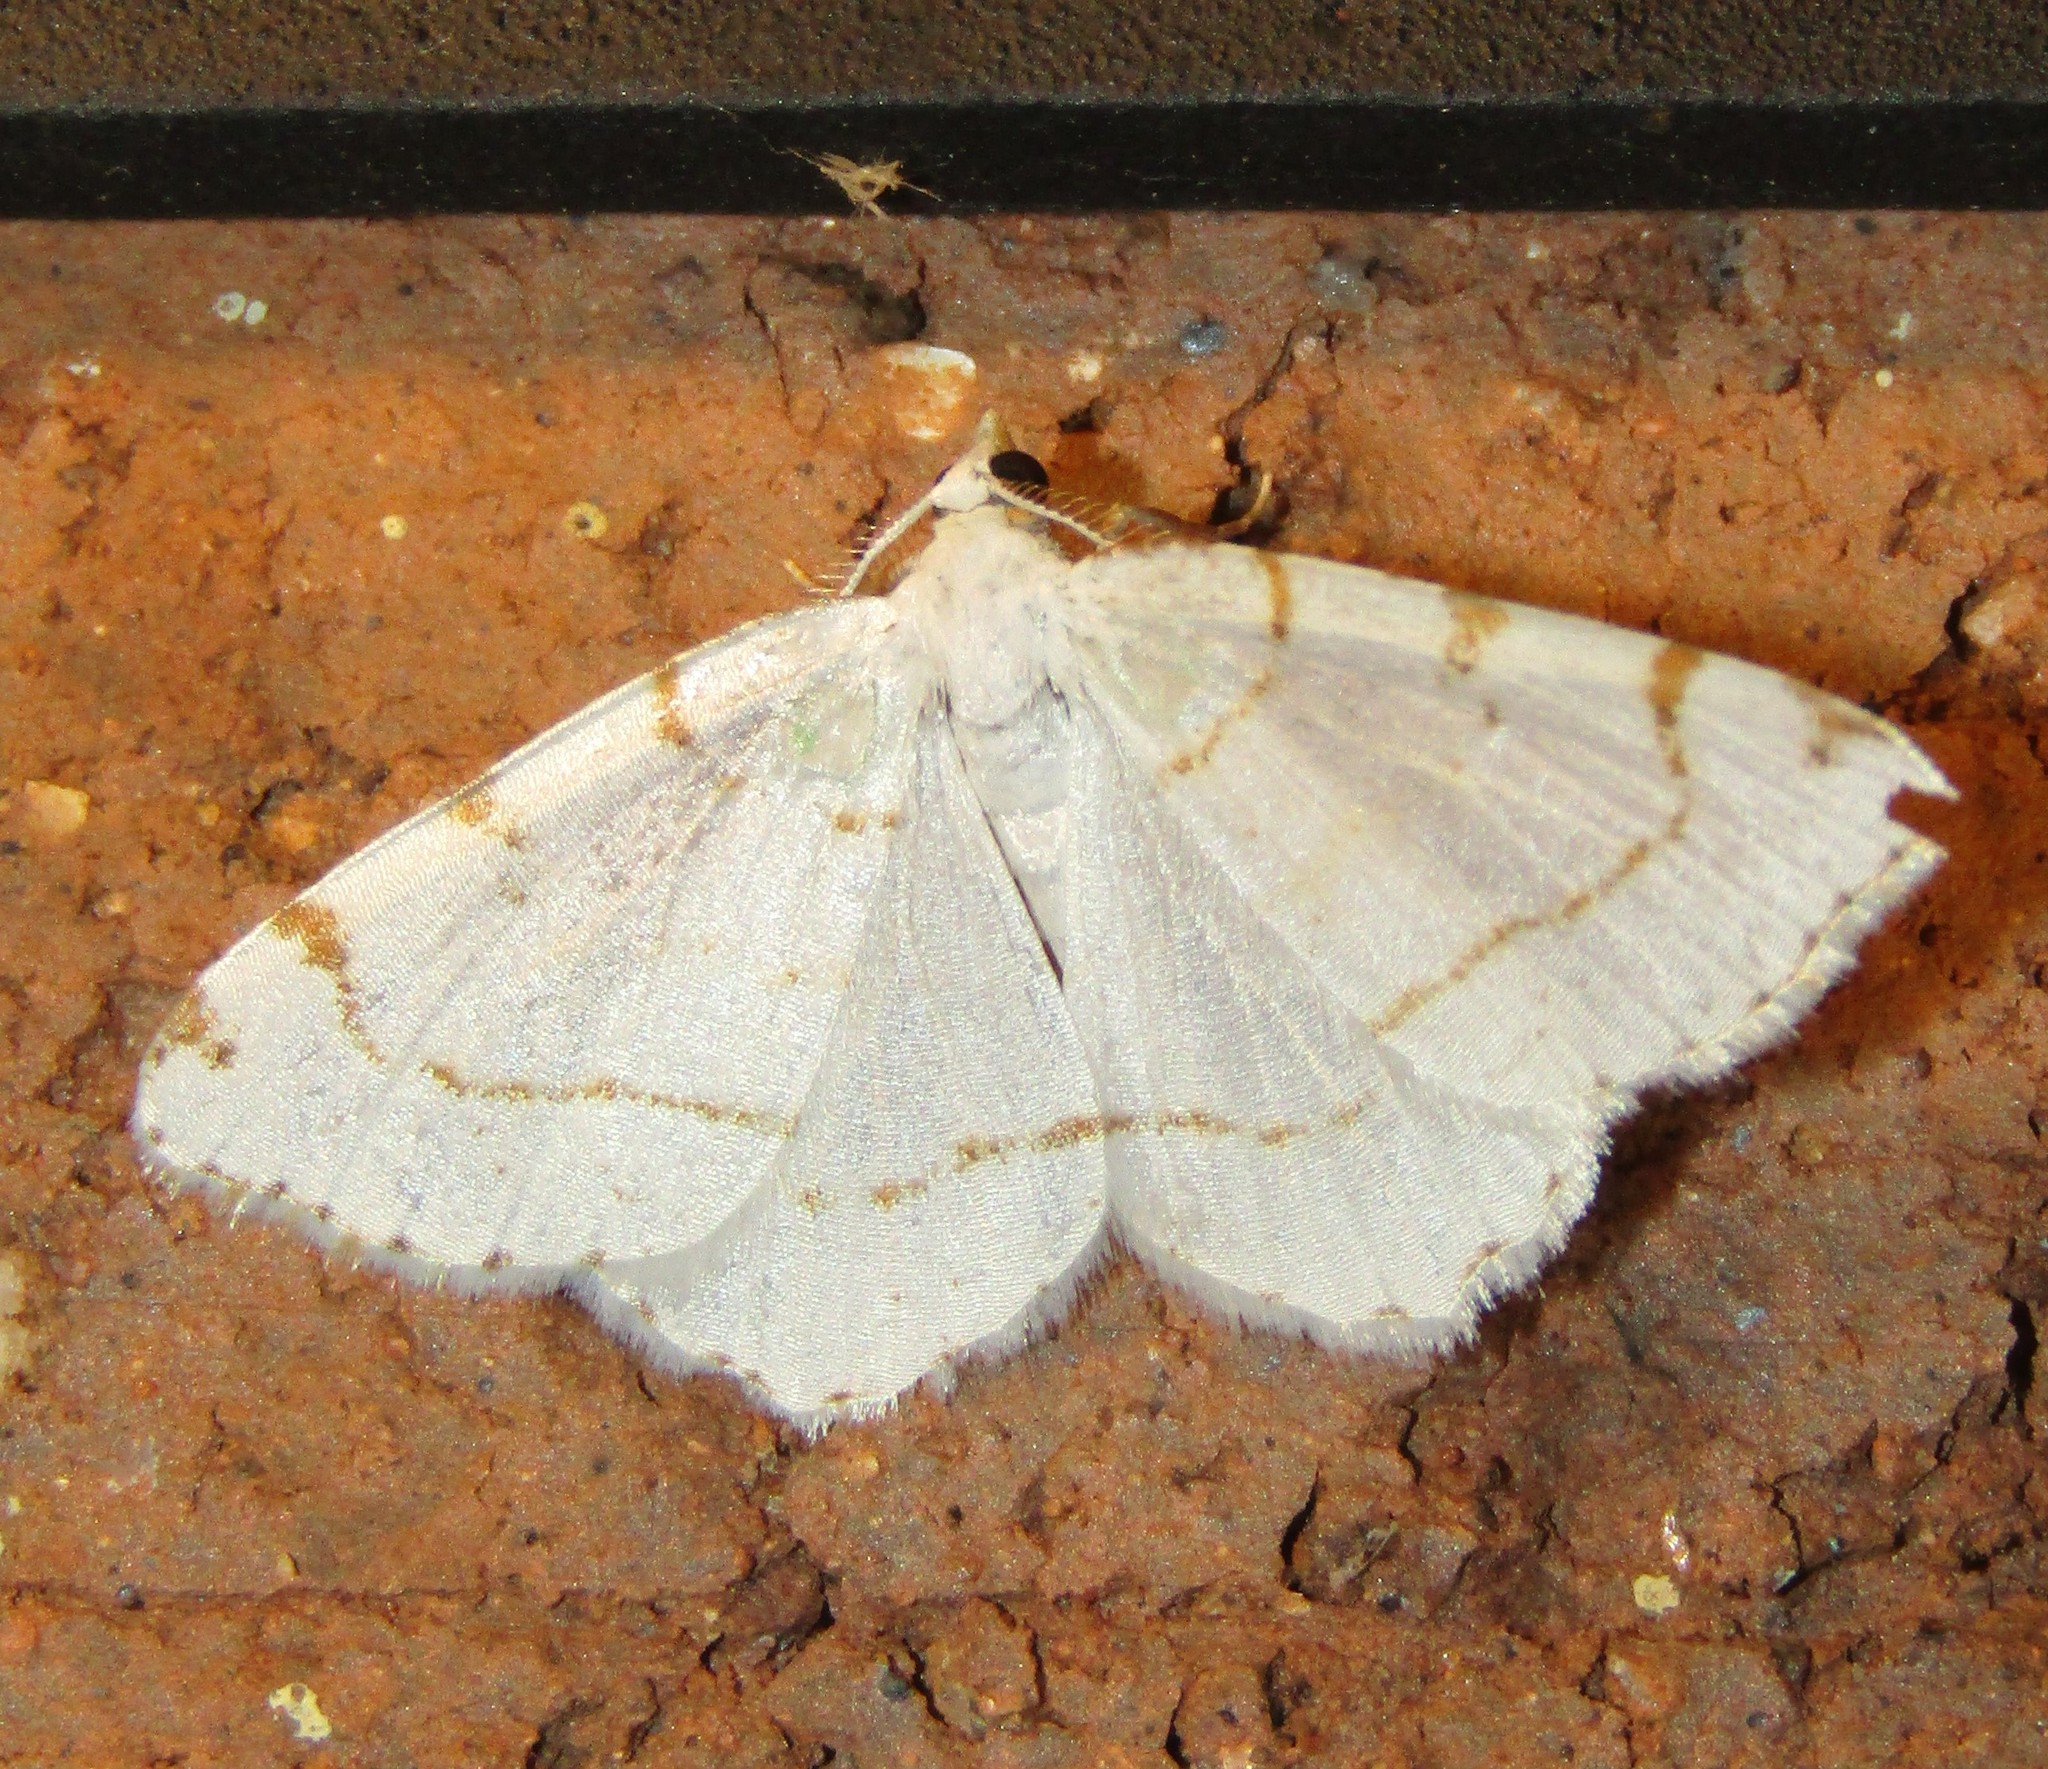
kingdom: Animalia
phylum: Arthropoda
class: Insecta
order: Lepidoptera
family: Geometridae
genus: Macaria
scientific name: Macaria pustularia
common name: Lesser maple spanworm moth
